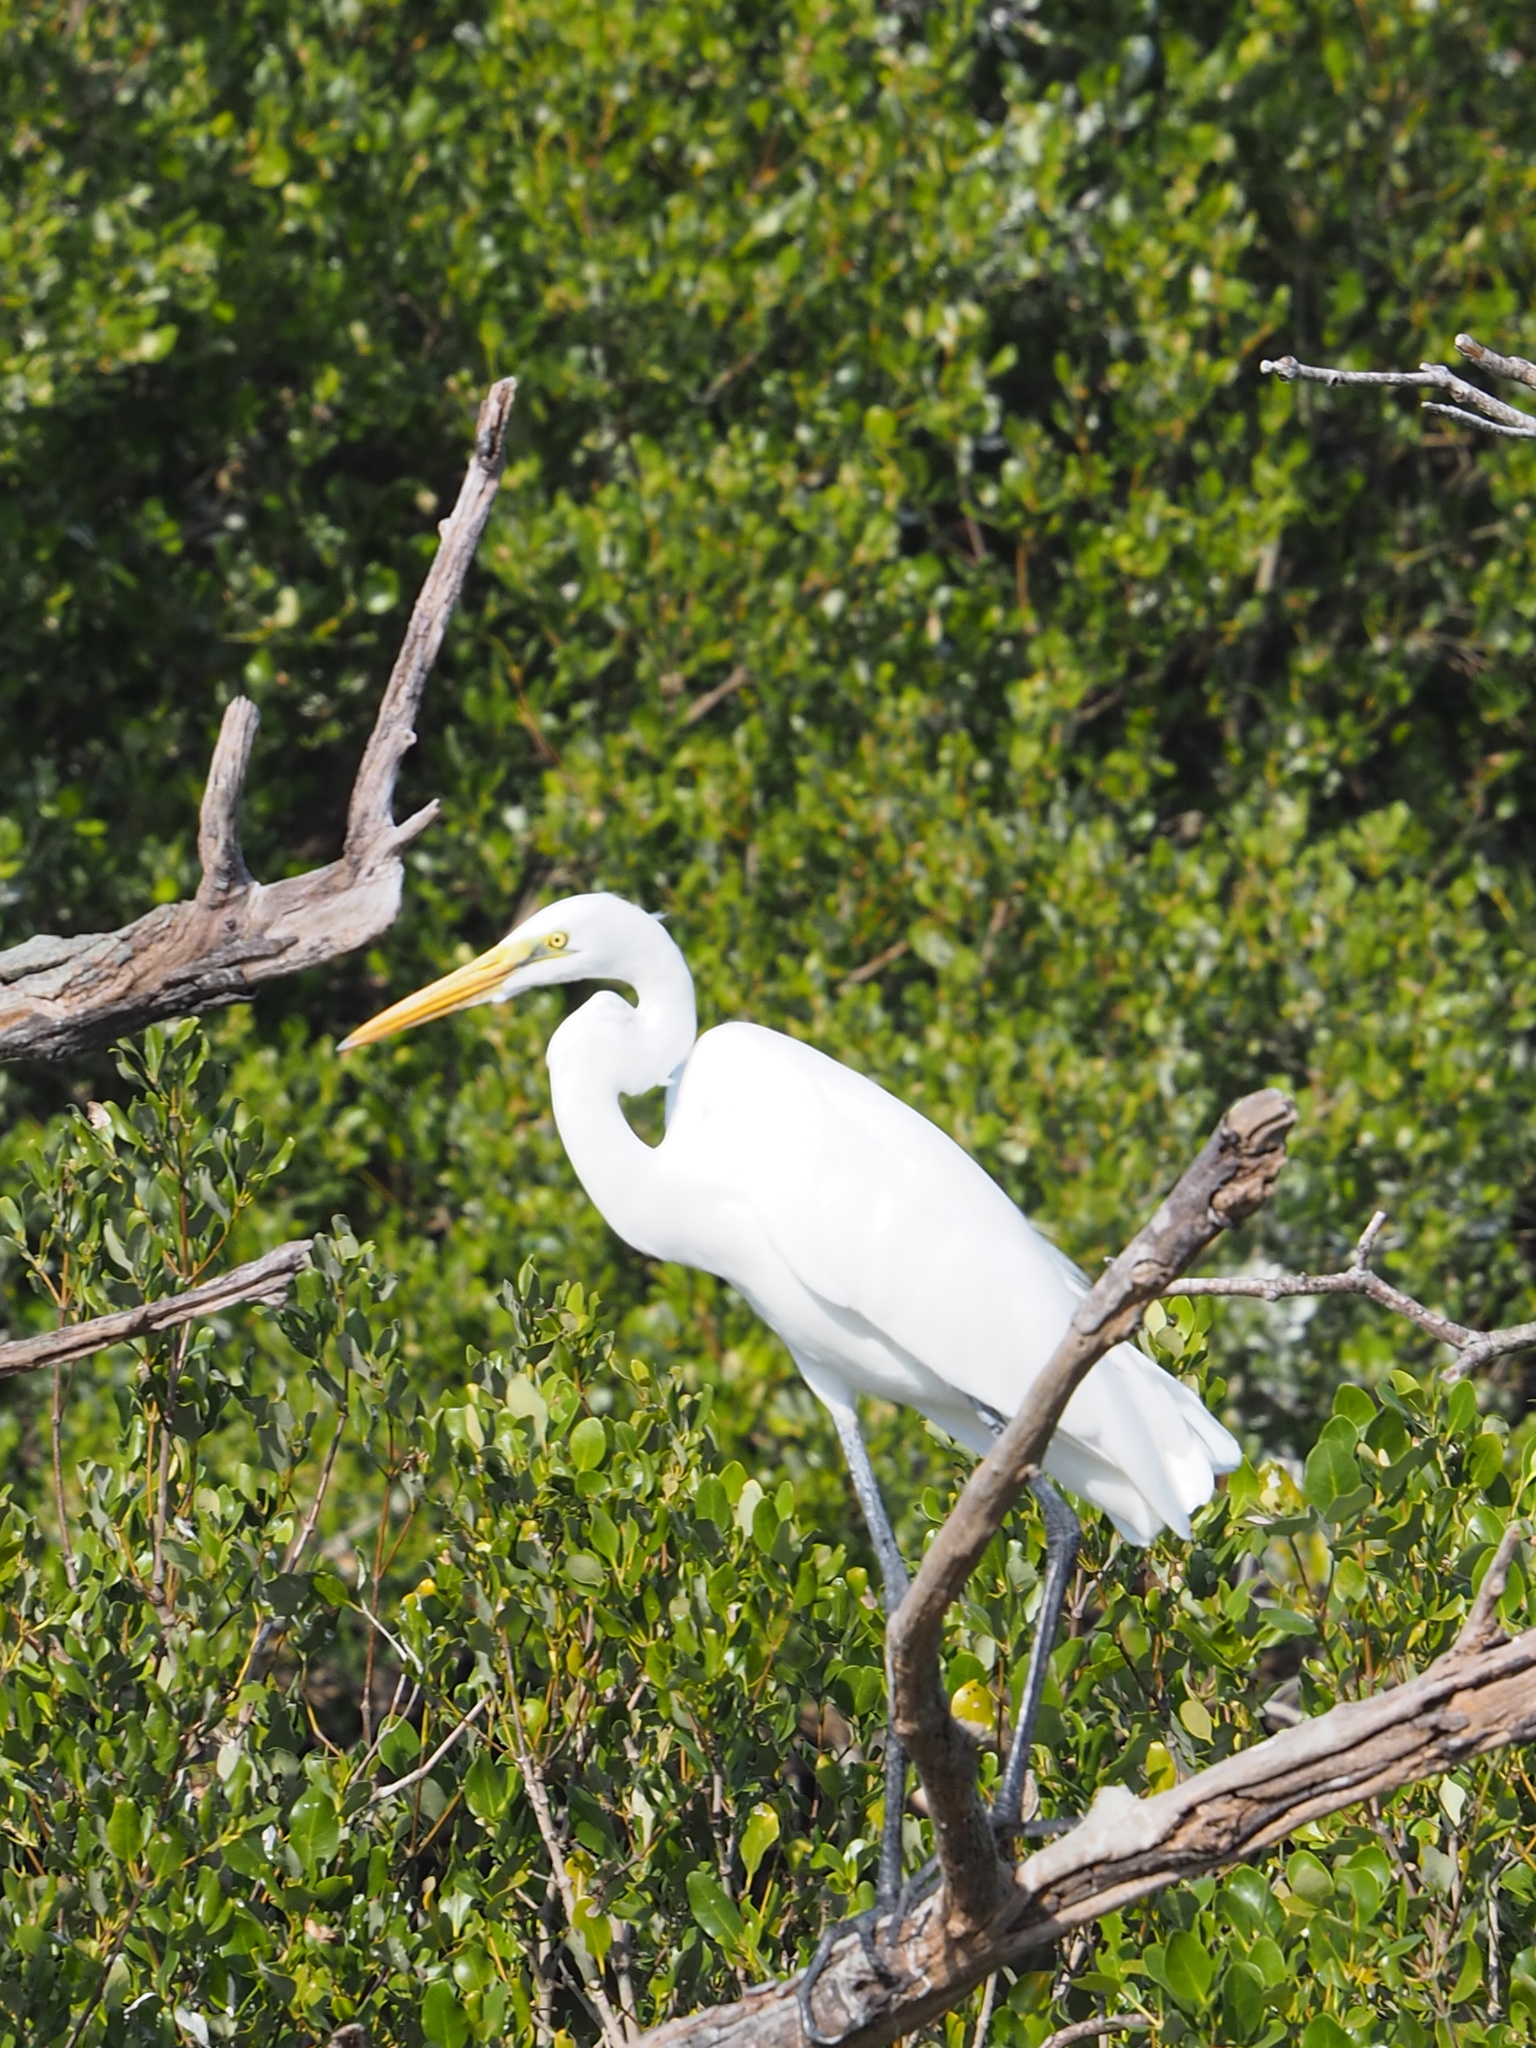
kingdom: Animalia
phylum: Chordata
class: Aves
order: Pelecaniformes
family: Ardeidae
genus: Ardea
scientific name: Ardea alba
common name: Great egret
